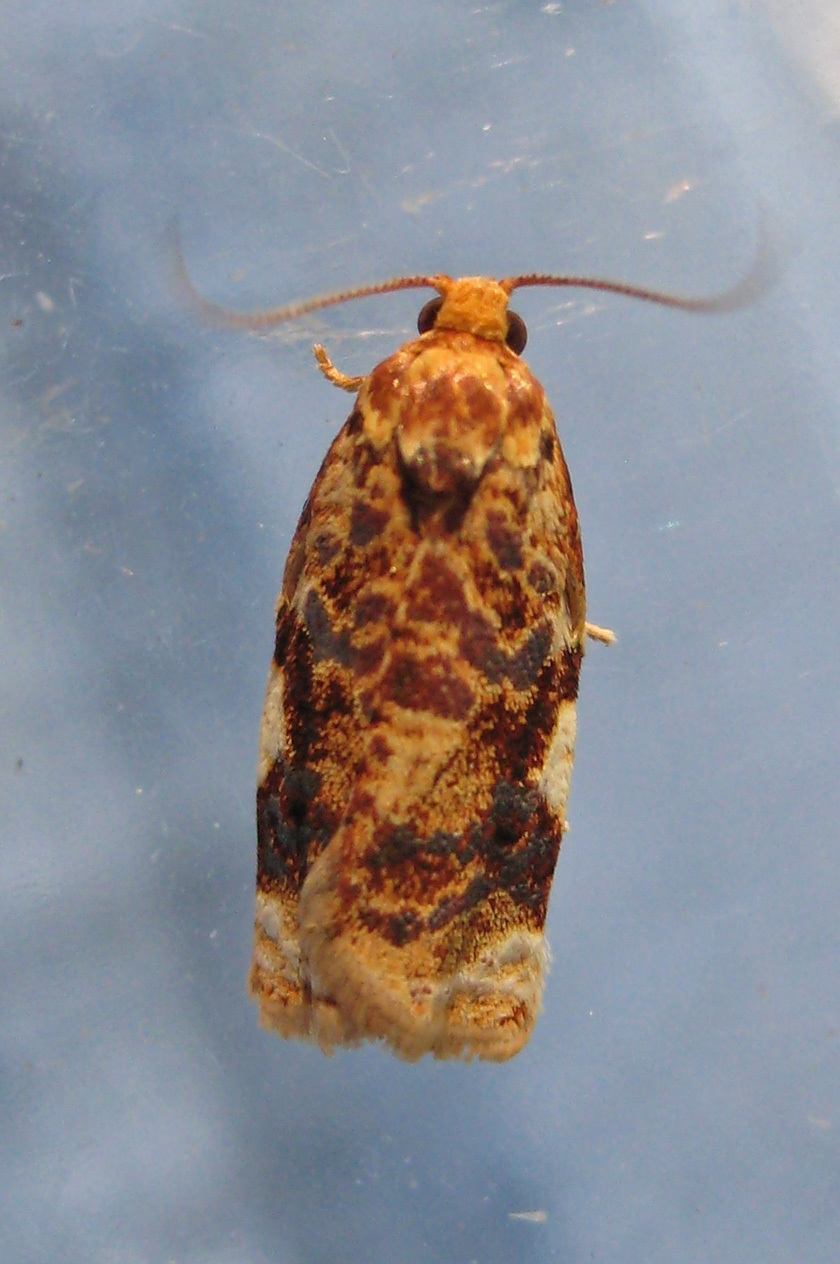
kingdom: Animalia
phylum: Arthropoda
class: Insecta
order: Lepidoptera
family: Tortricidae
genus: Archips
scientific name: Archips argyrospila
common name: Fruit-tree leafroller moth
